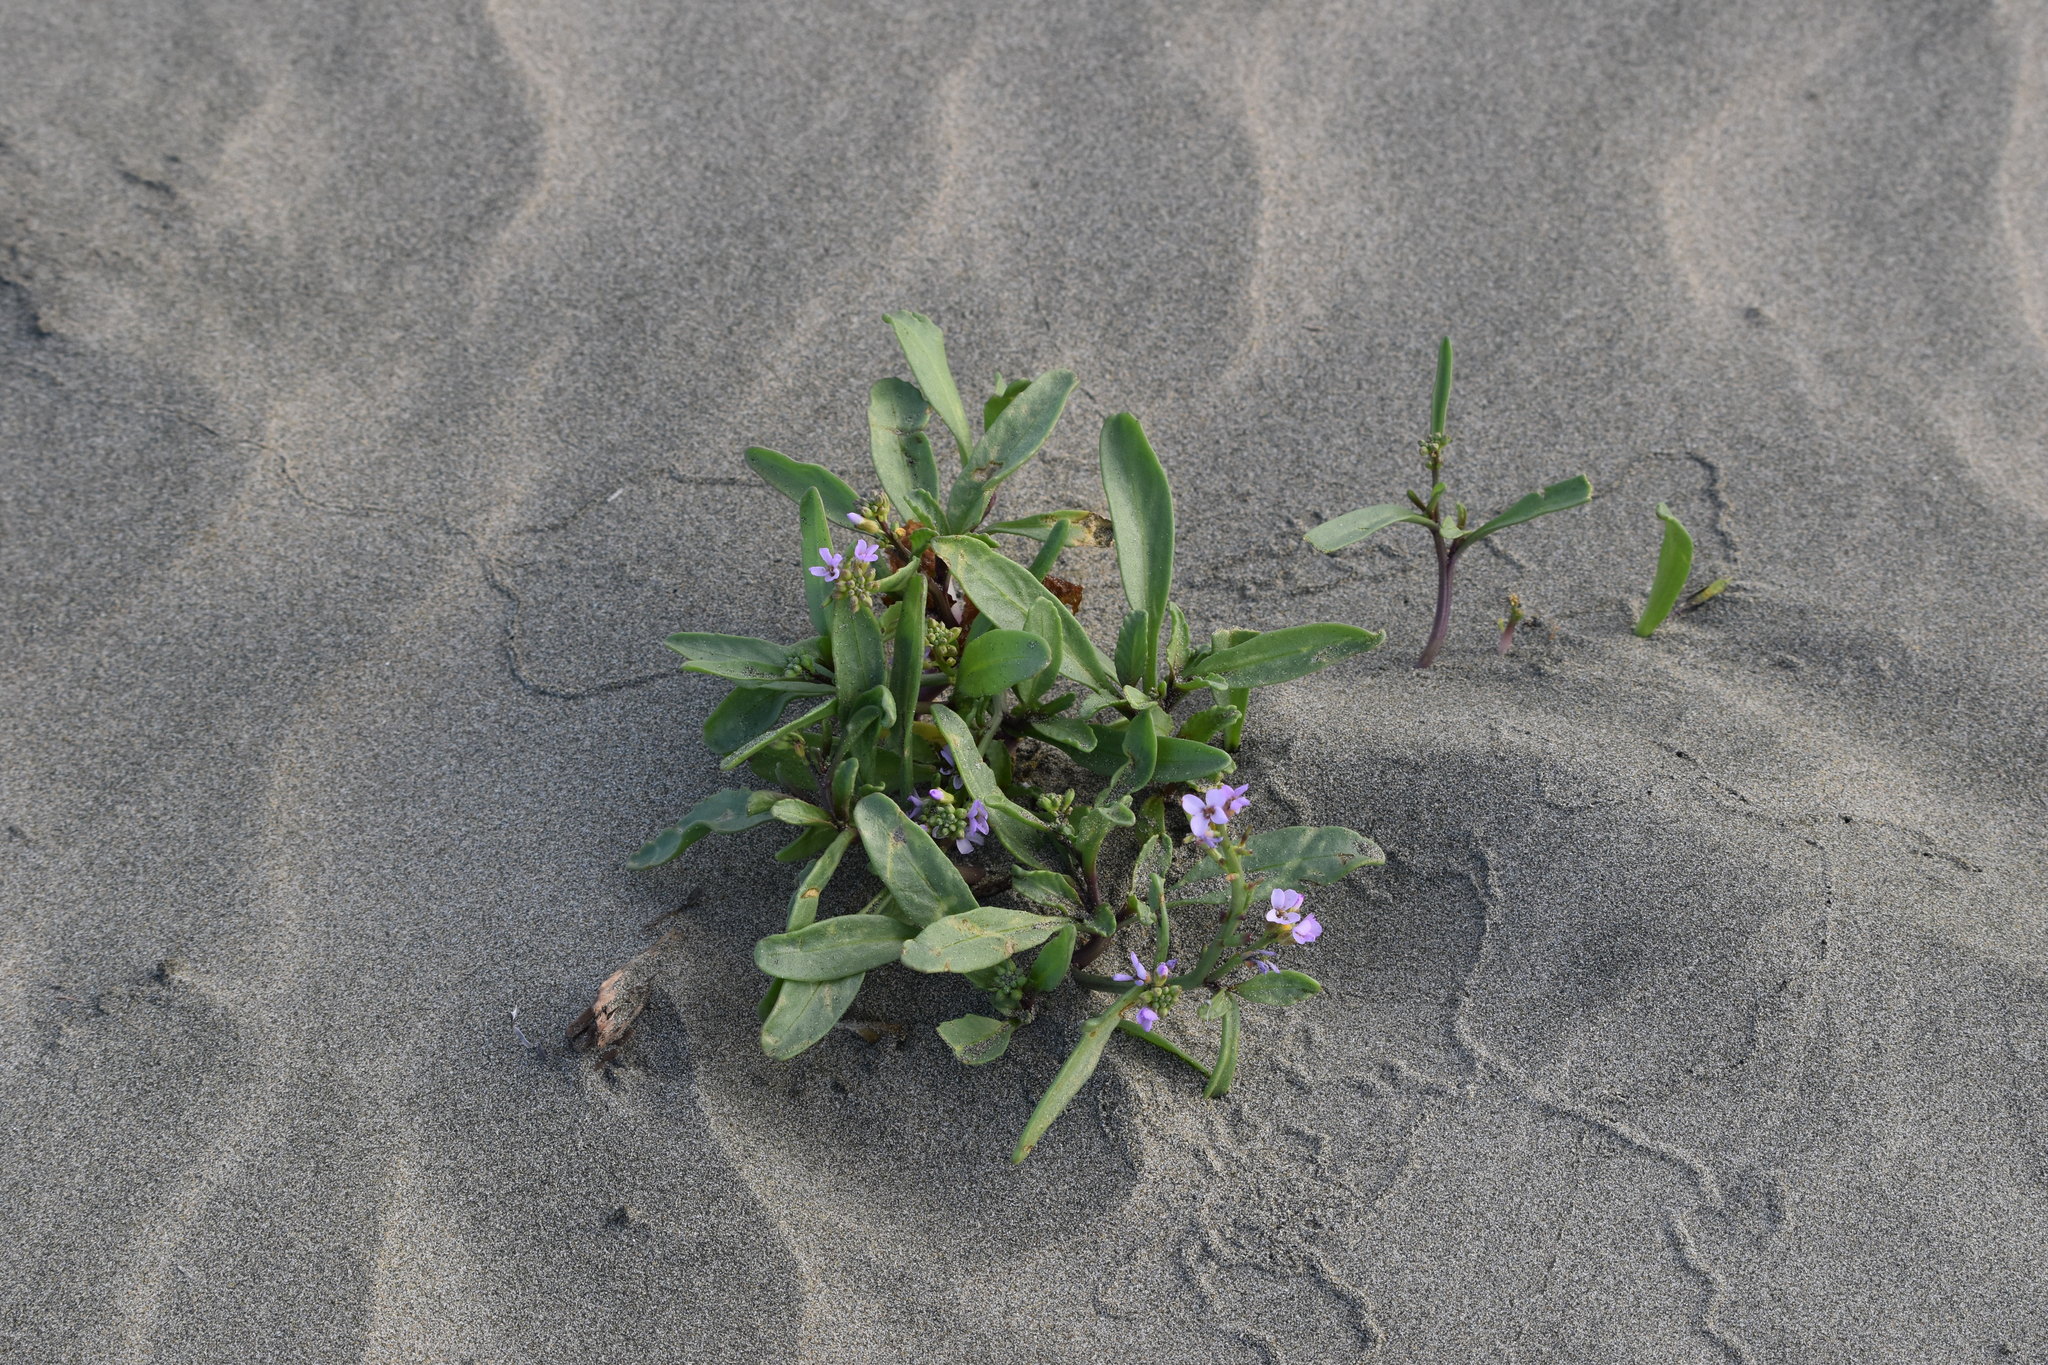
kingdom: Plantae
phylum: Tracheophyta
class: Magnoliopsida
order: Brassicales
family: Brassicaceae
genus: Cakile
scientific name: Cakile edentula
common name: American sea rocket
